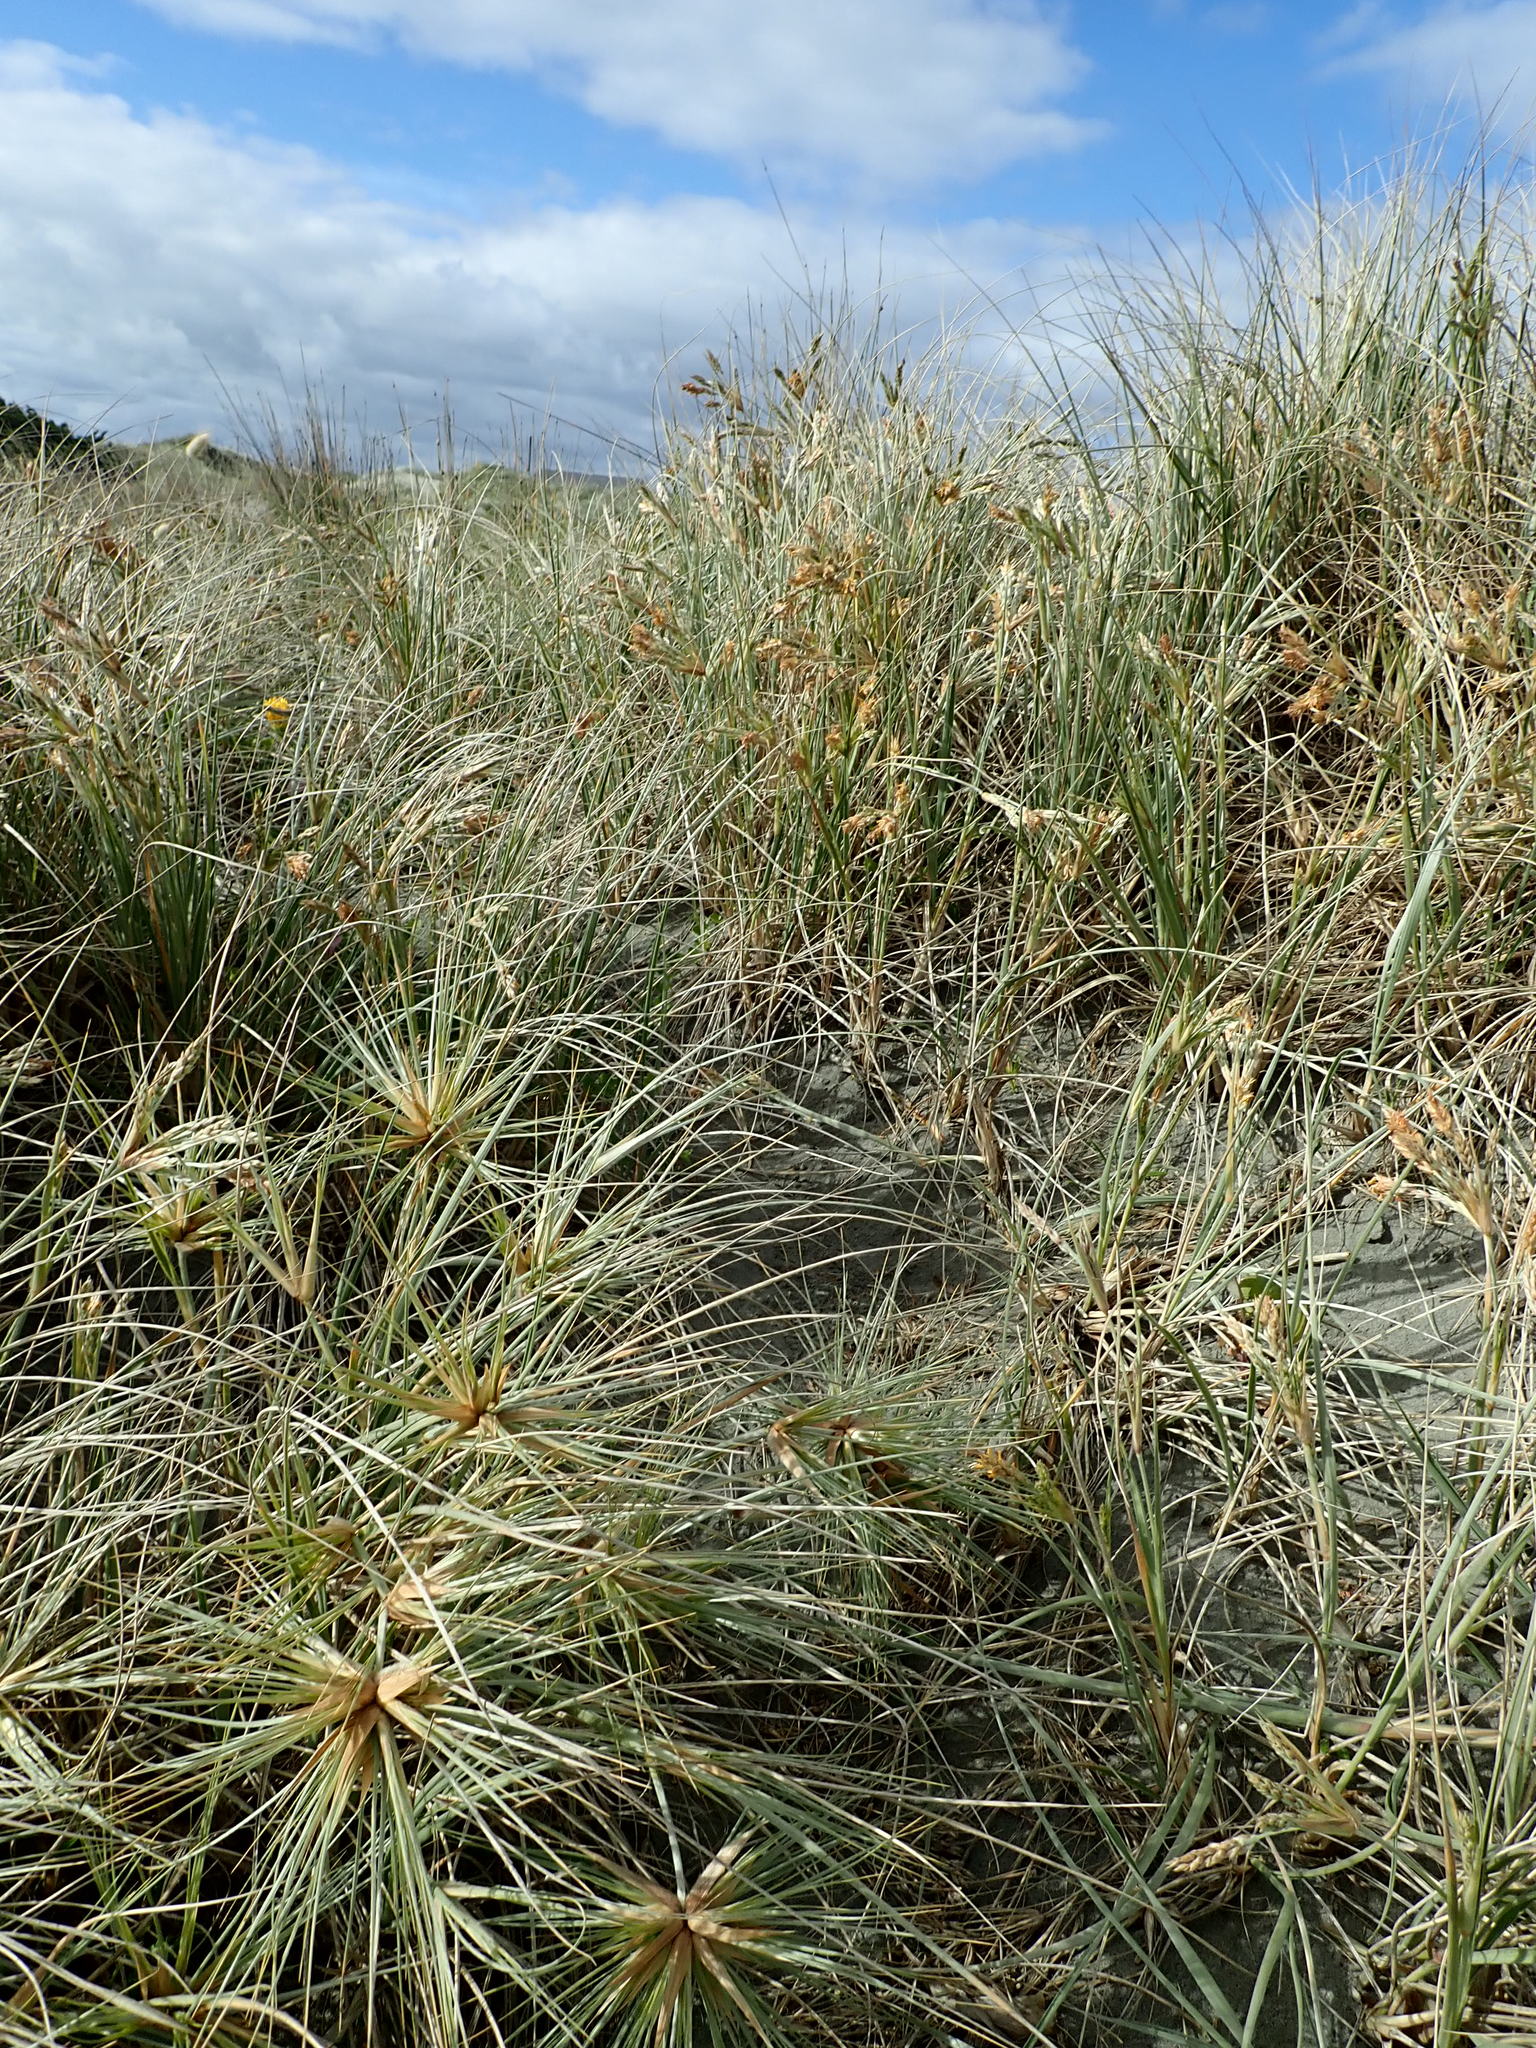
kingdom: Plantae
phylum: Tracheophyta
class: Liliopsida
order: Poales
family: Poaceae
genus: Spinifex
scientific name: Spinifex sericeus
